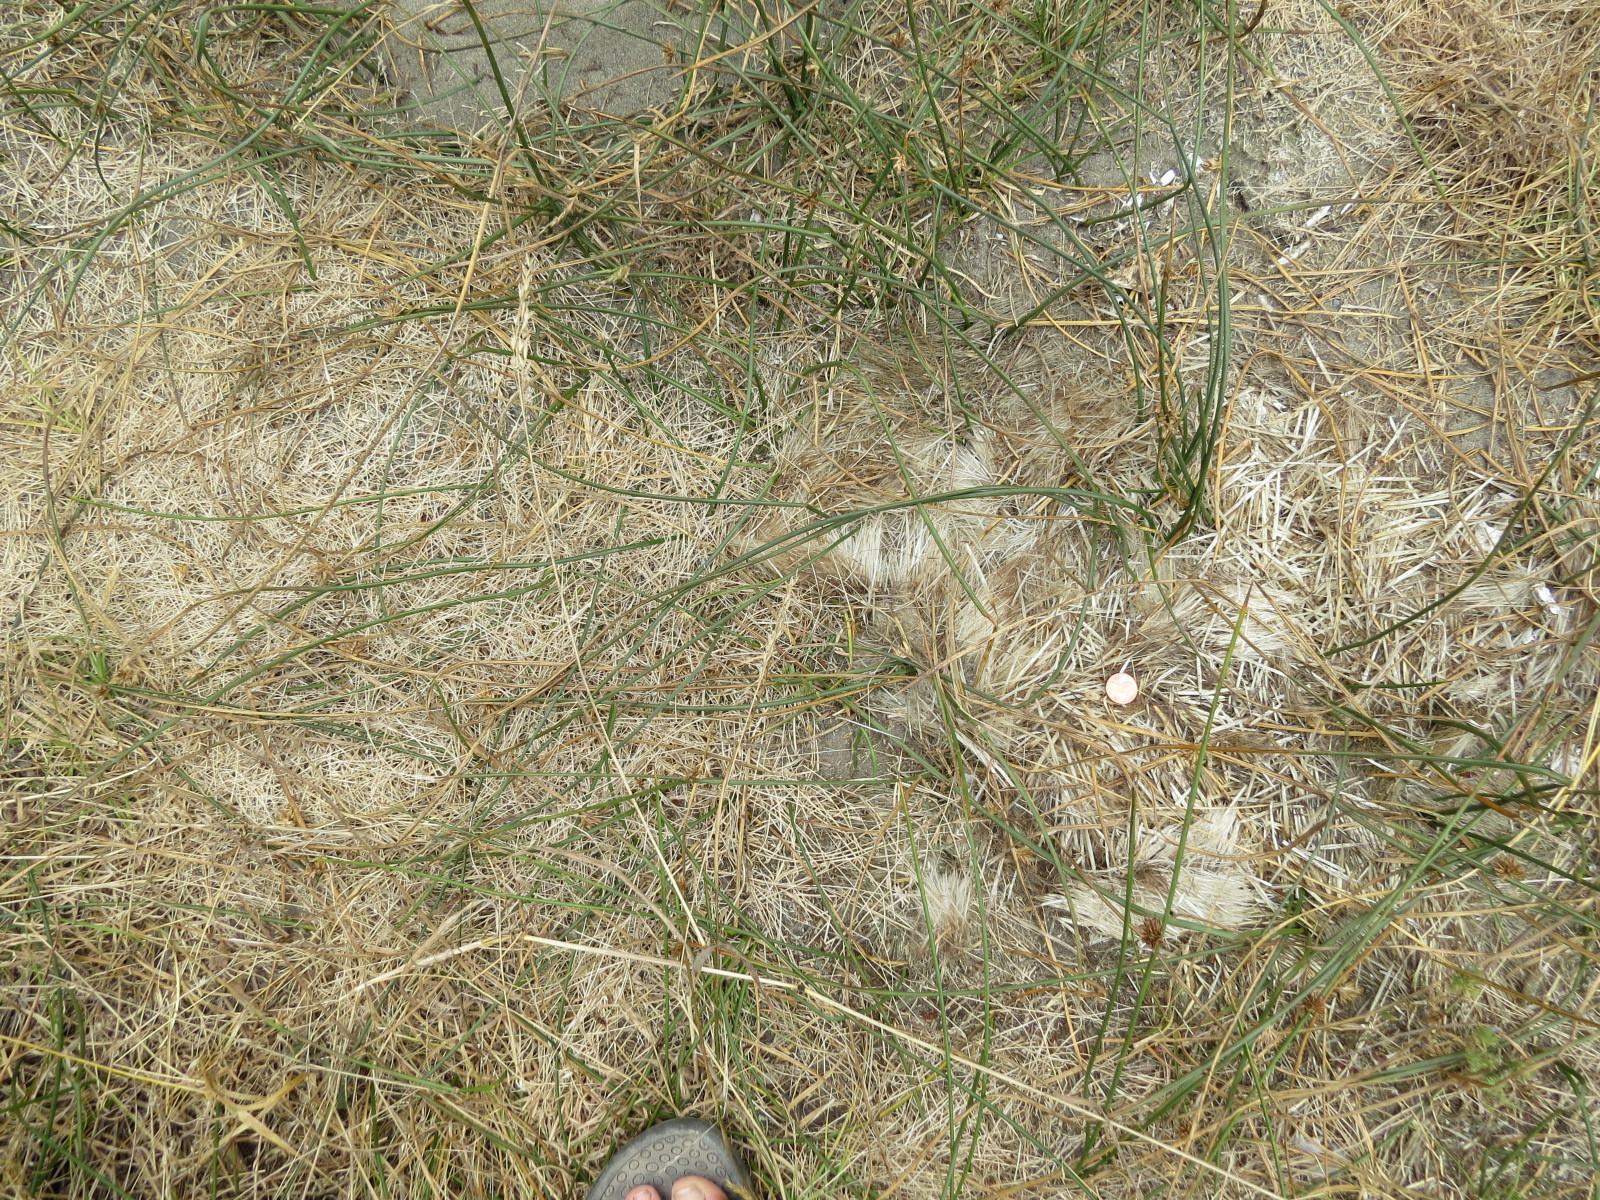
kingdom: Animalia
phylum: Chordata
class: Mammalia
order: Rodentia
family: Erethizontidae
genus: Erethizon
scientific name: Erethizon dorsatus
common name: North american porcupine
